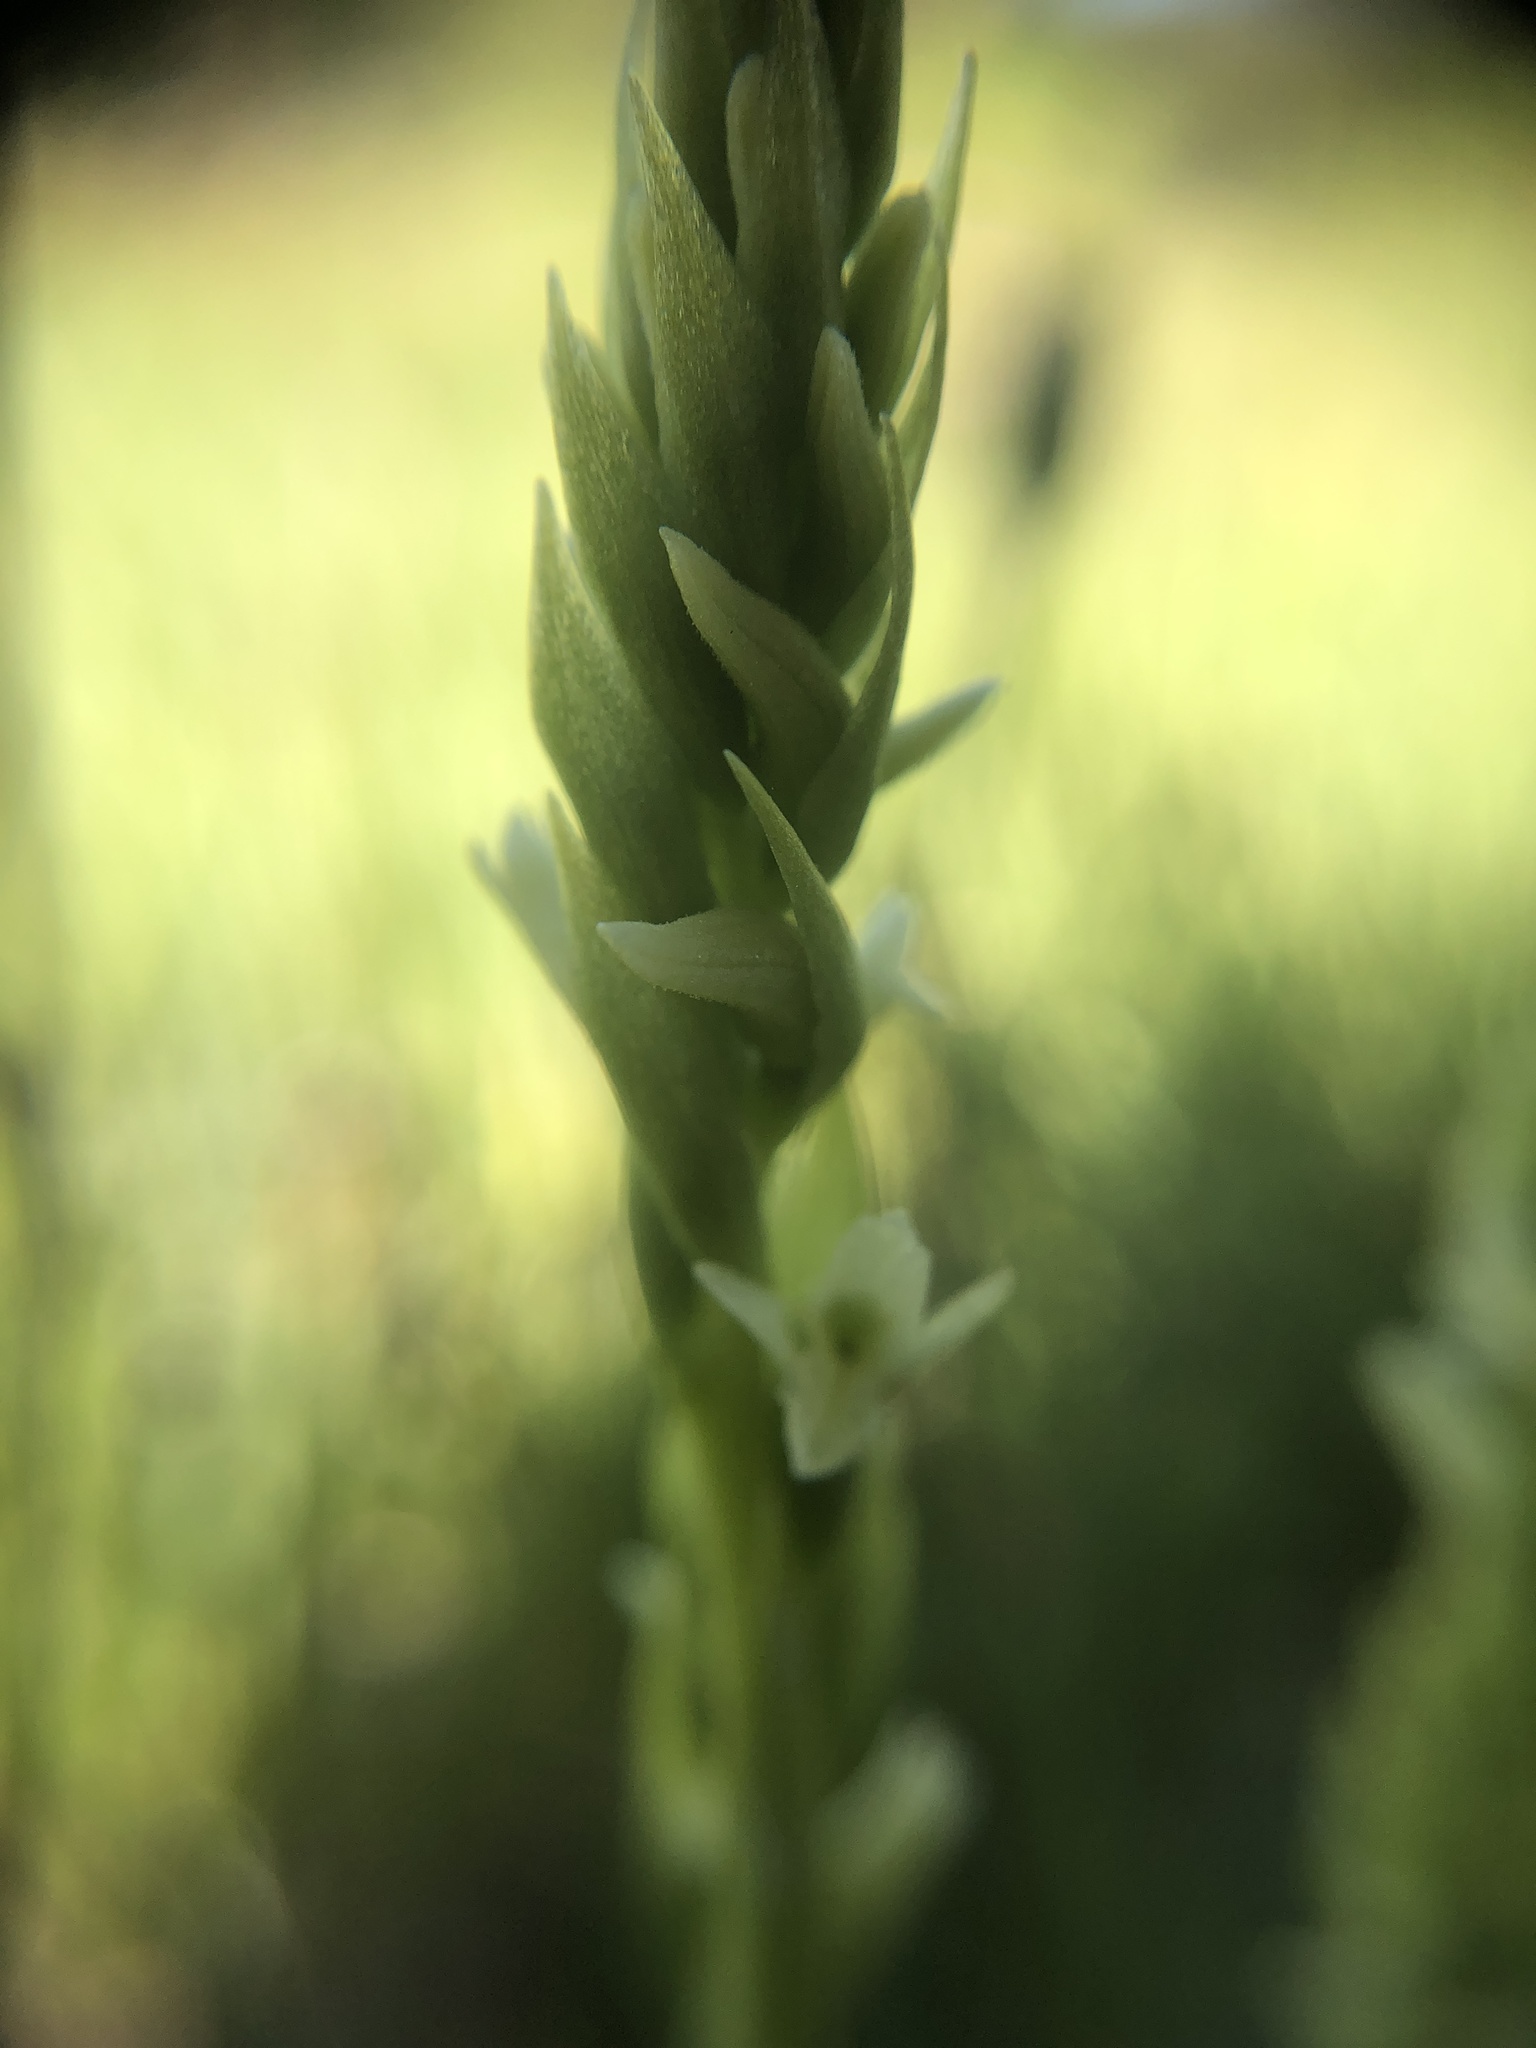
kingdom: Plantae
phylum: Tracheophyta
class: Liliopsida
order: Asparagales
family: Orchidaceae
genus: Spiranthes
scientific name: Spiranthes stellata
